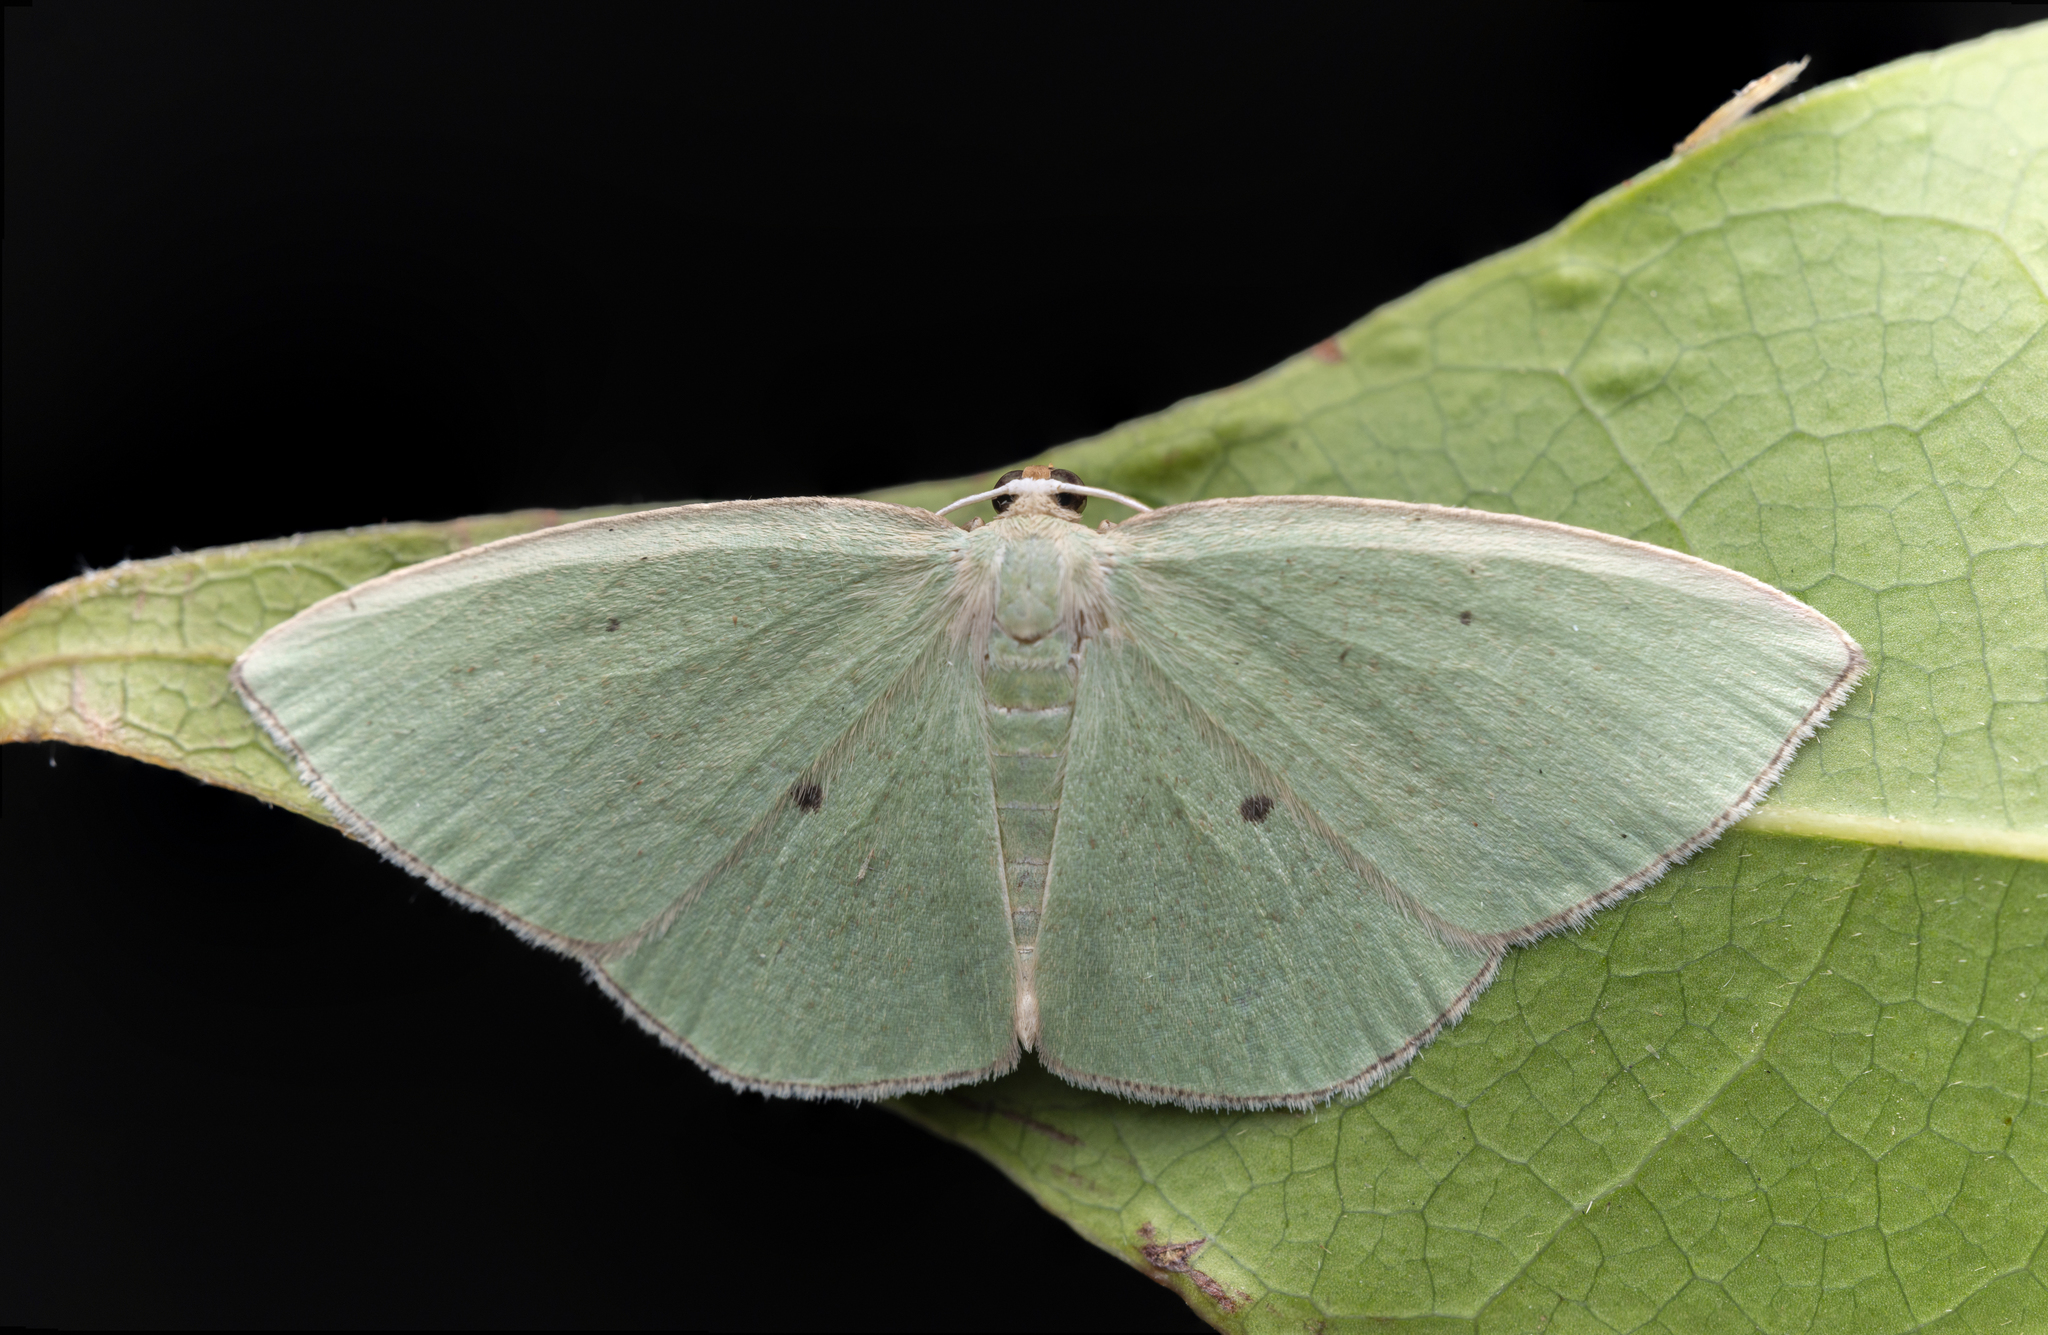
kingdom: Animalia
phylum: Arthropoda
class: Insecta
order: Lepidoptera
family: Geometridae
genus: Pseudothalera
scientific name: Pseudothalera carolinae
